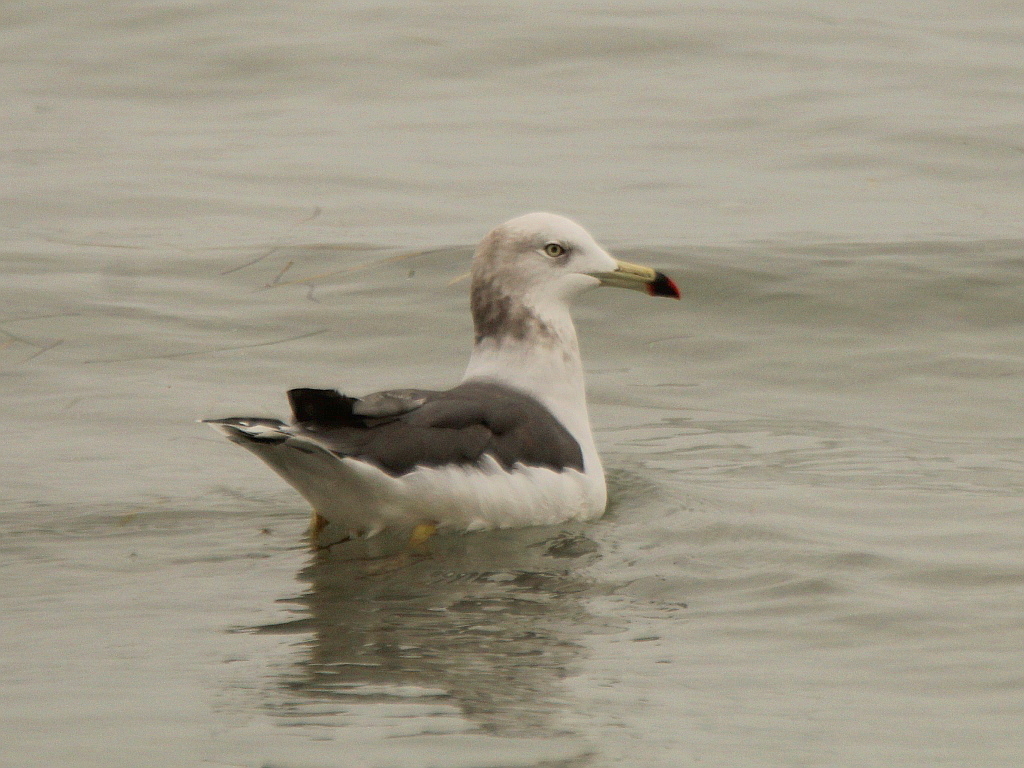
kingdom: Animalia
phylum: Chordata
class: Aves
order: Charadriiformes
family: Laridae
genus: Larus
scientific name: Larus crassirostris
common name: Black-tailed gull
